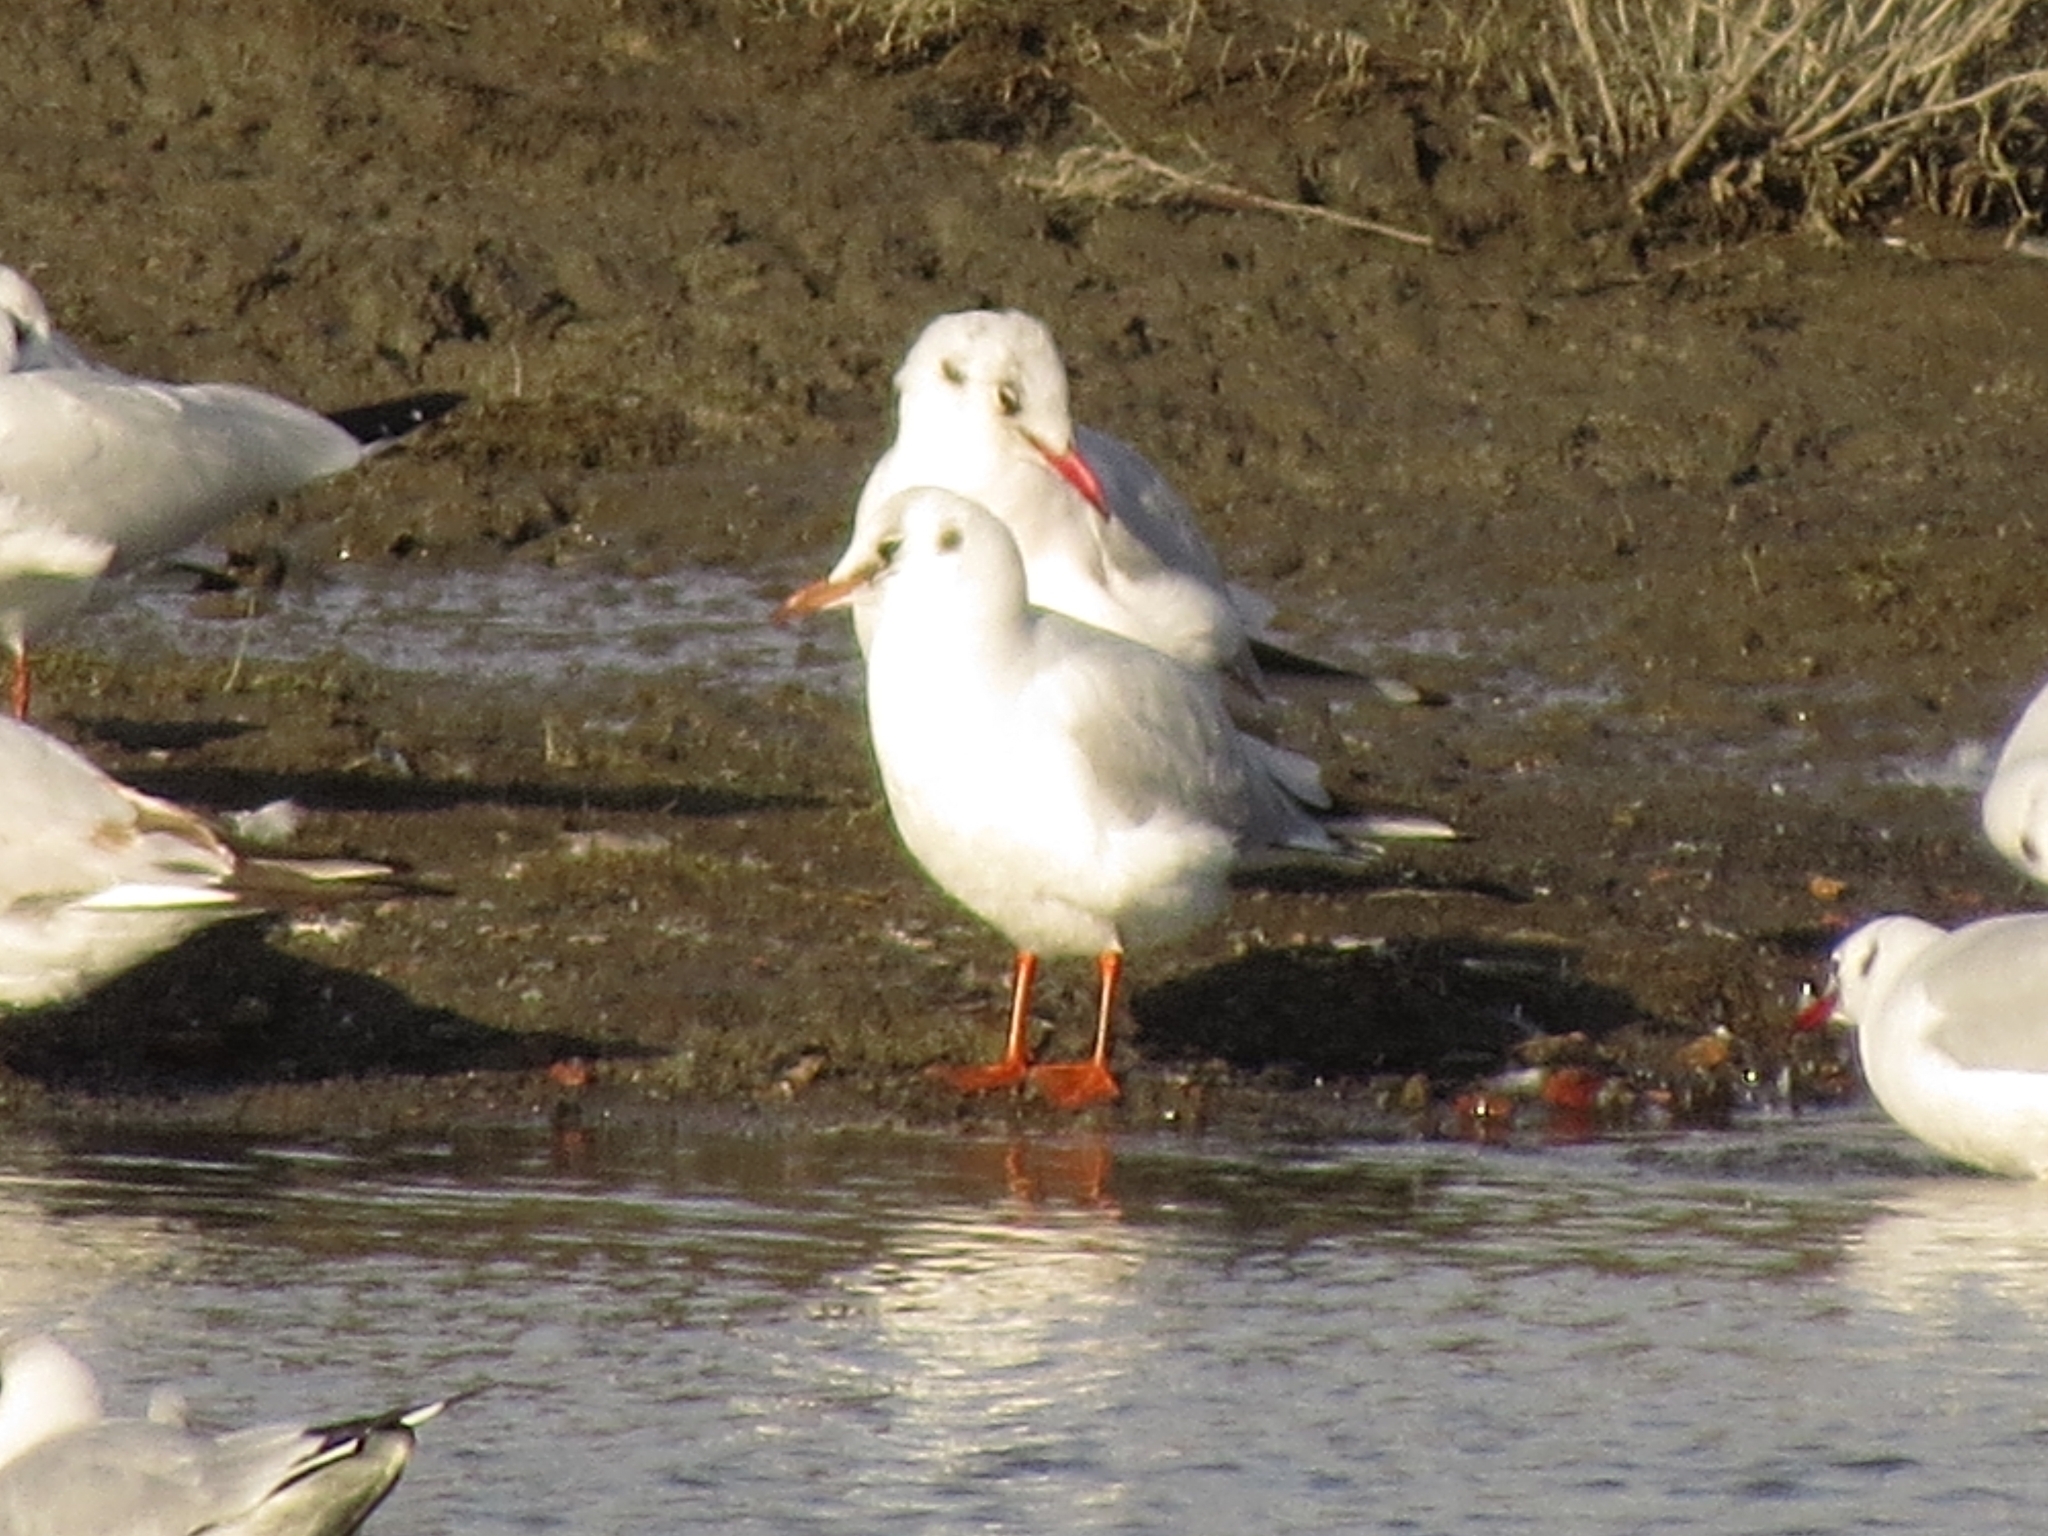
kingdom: Animalia
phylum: Chordata
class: Aves
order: Charadriiformes
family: Laridae
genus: Chroicocephalus
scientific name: Chroicocephalus ridibundus
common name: Black-headed gull
